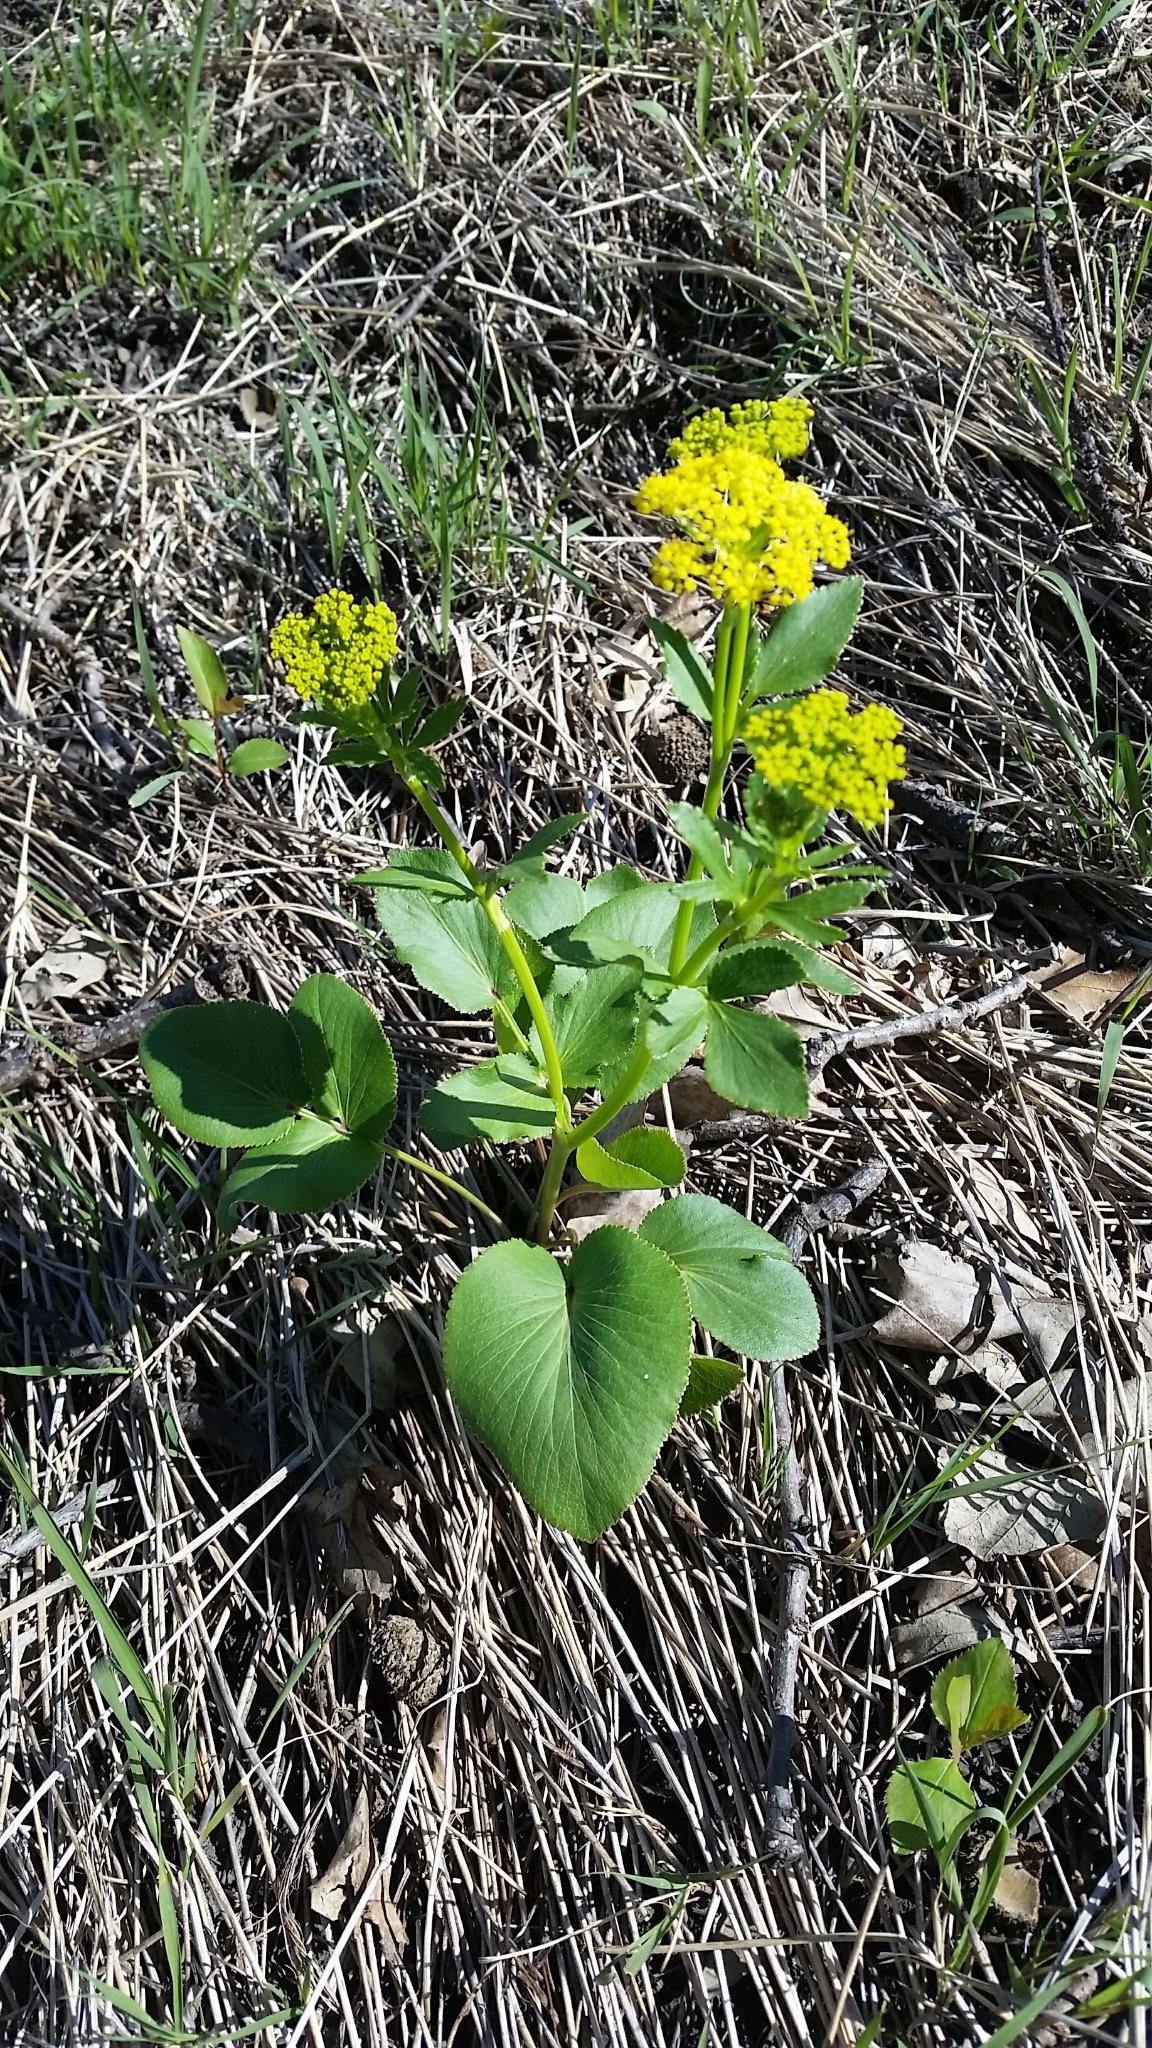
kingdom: Plantae
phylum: Tracheophyta
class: Magnoliopsida
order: Apiales
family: Apiaceae
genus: Zizia
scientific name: Zizia aptera
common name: Heart-leaved alexanders
